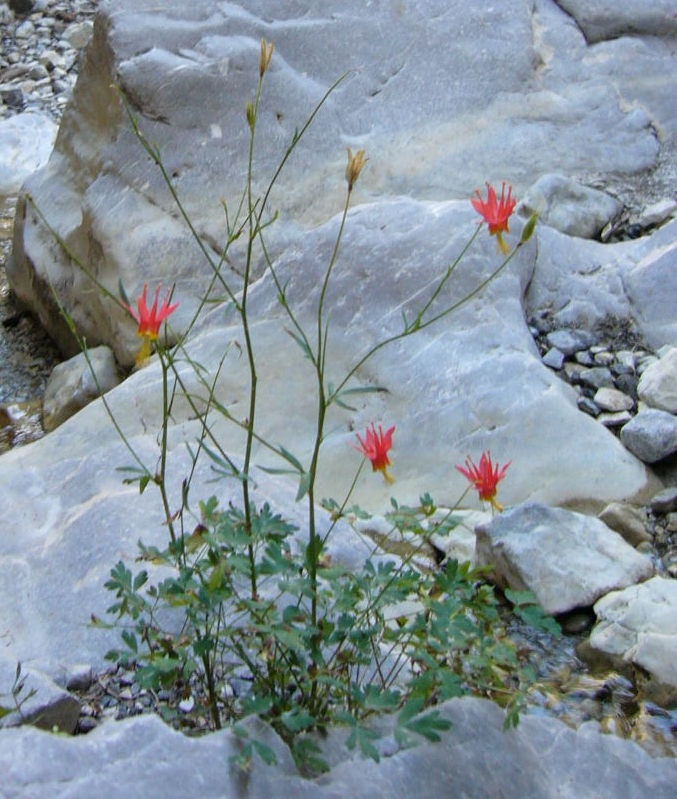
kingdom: Plantae
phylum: Tracheophyta
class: Magnoliopsida
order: Ranunculales
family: Ranunculaceae
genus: Aquilegia
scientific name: Aquilegia formosa
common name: Sitka columbine
